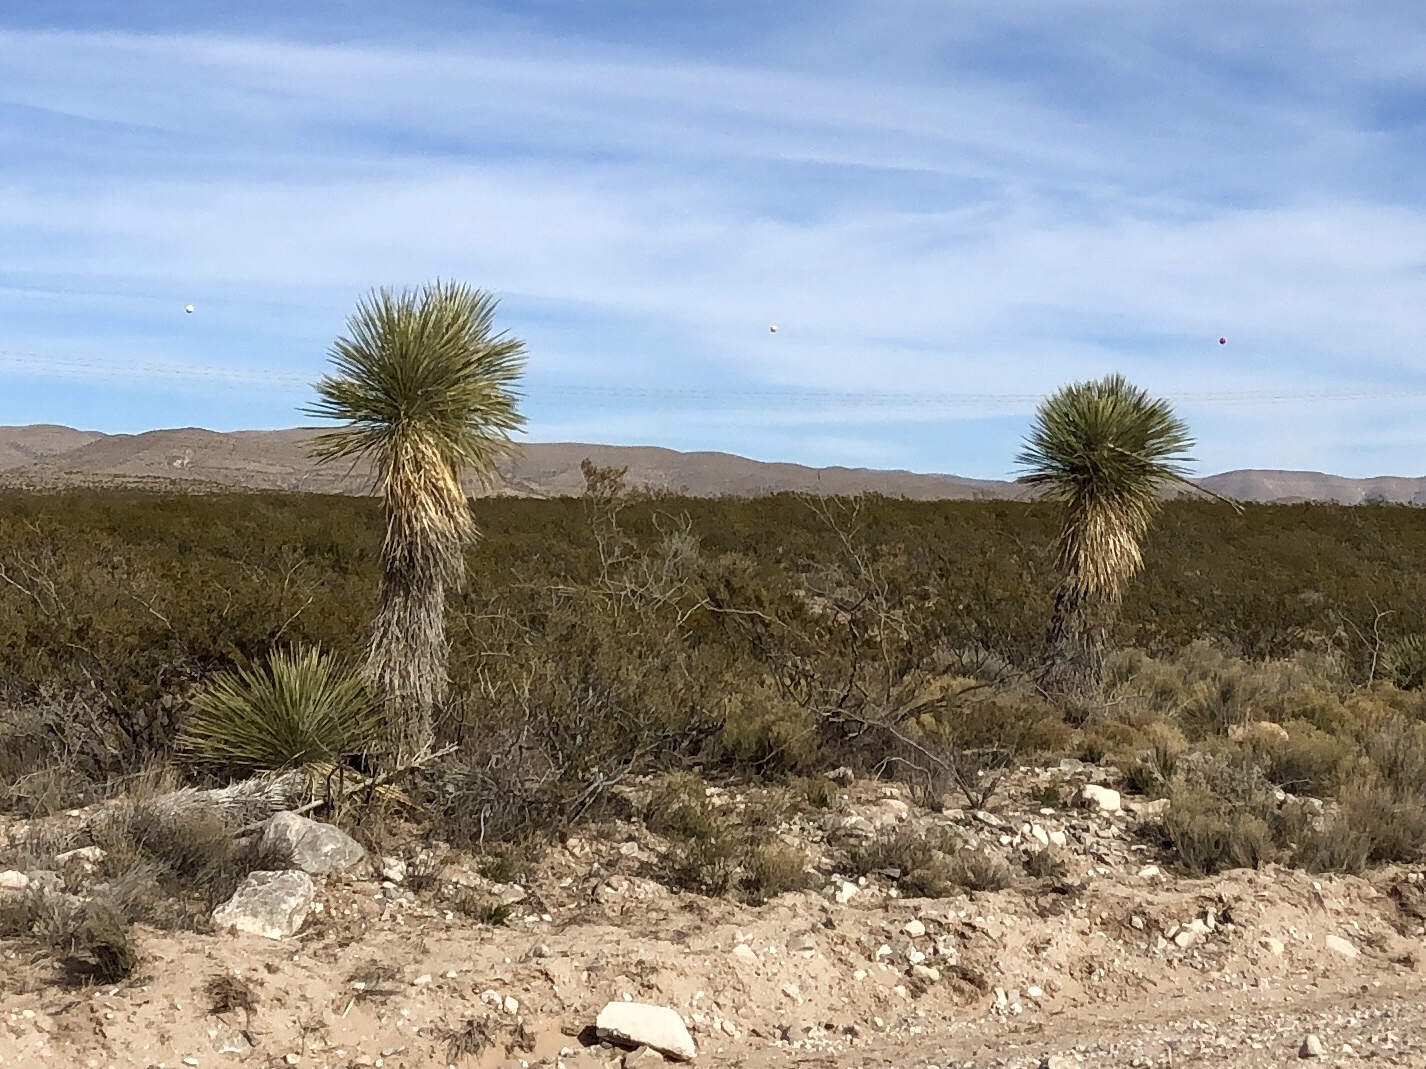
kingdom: Plantae
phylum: Tracheophyta
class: Liliopsida
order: Asparagales
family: Asparagaceae
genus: Yucca
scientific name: Yucca elata
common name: Palmella
